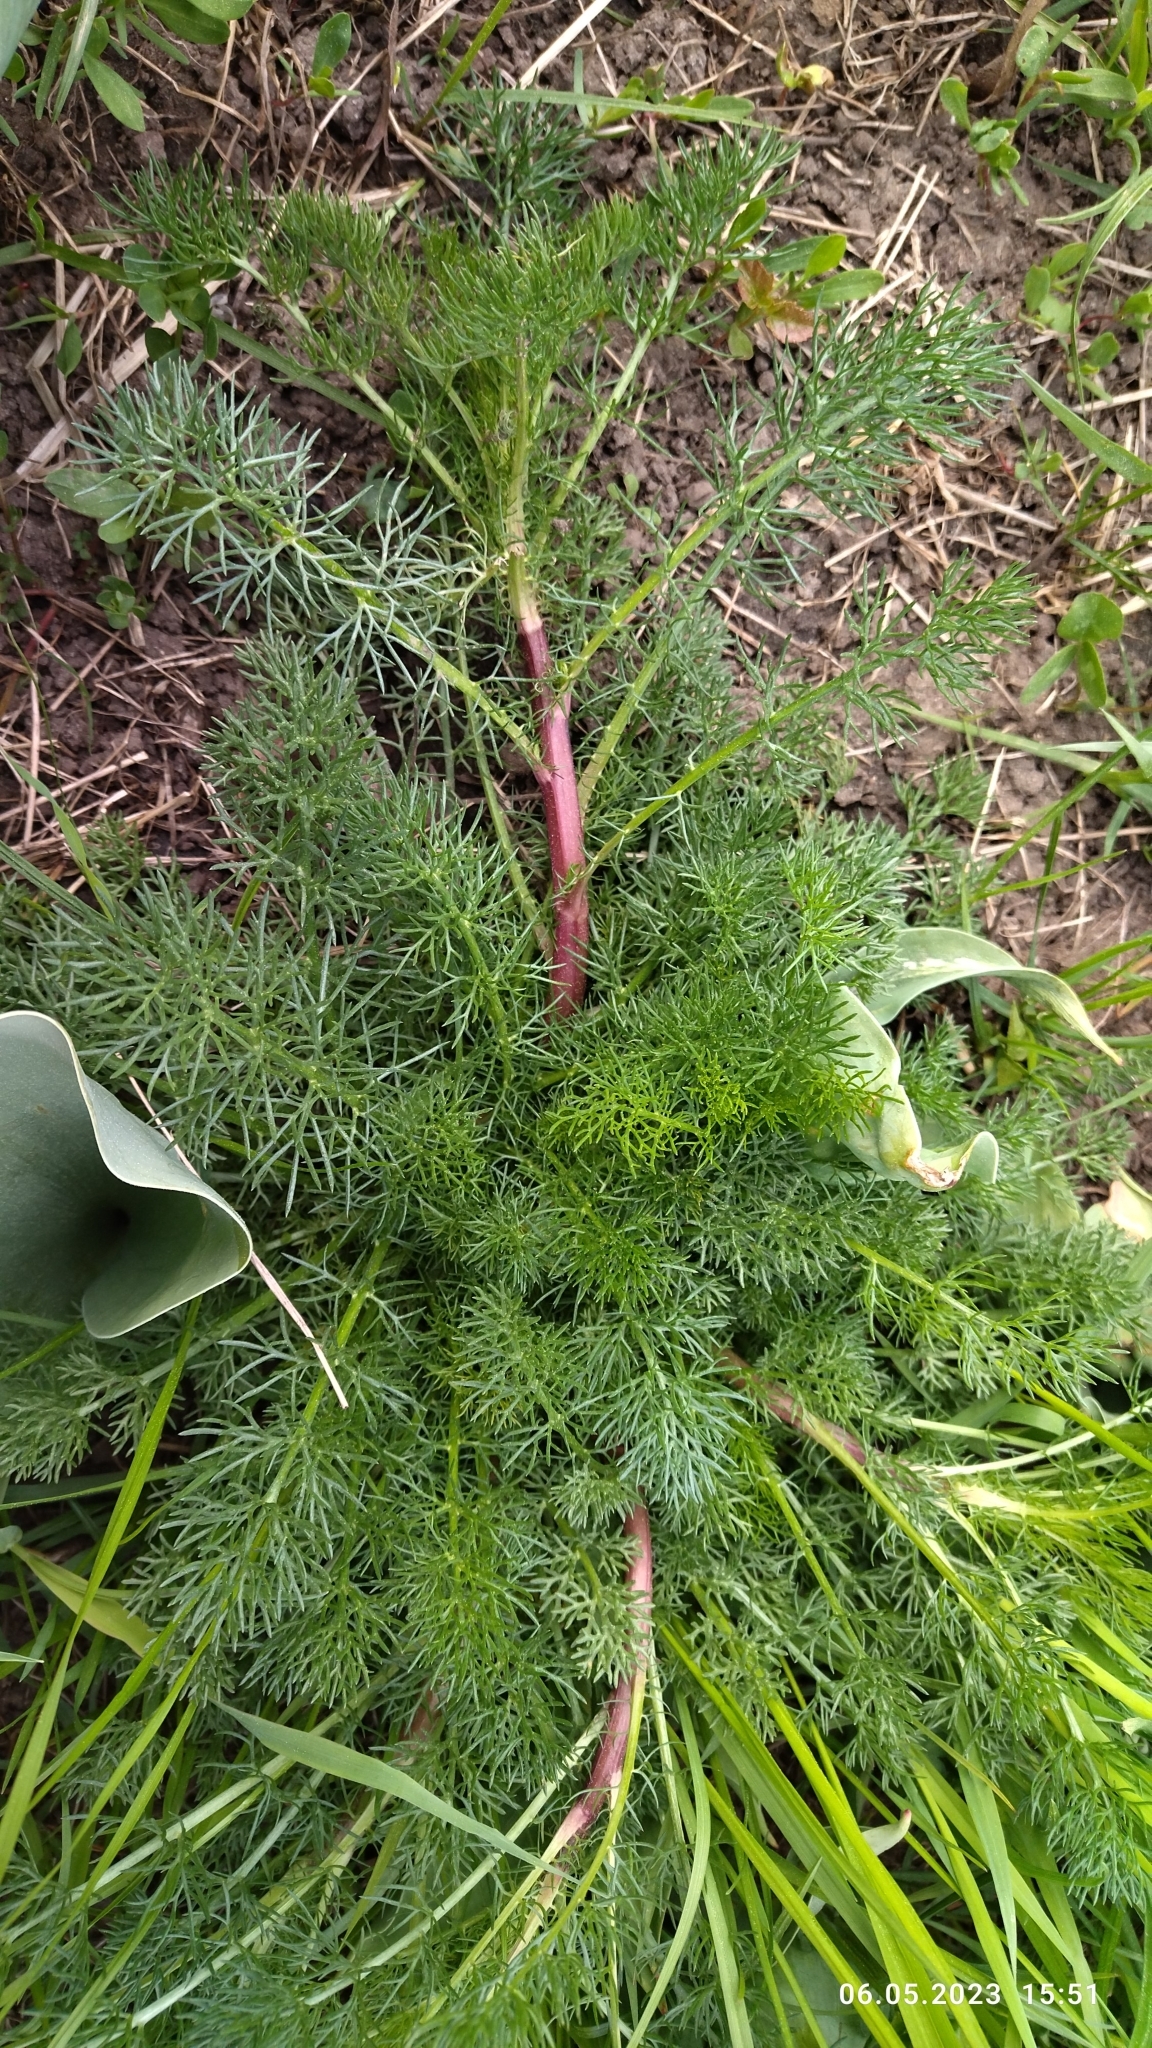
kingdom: Plantae
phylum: Tracheophyta
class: Magnoliopsida
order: Asterales
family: Asteraceae
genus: Tripleurospermum
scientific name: Tripleurospermum inodorum
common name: Scentless mayweed
